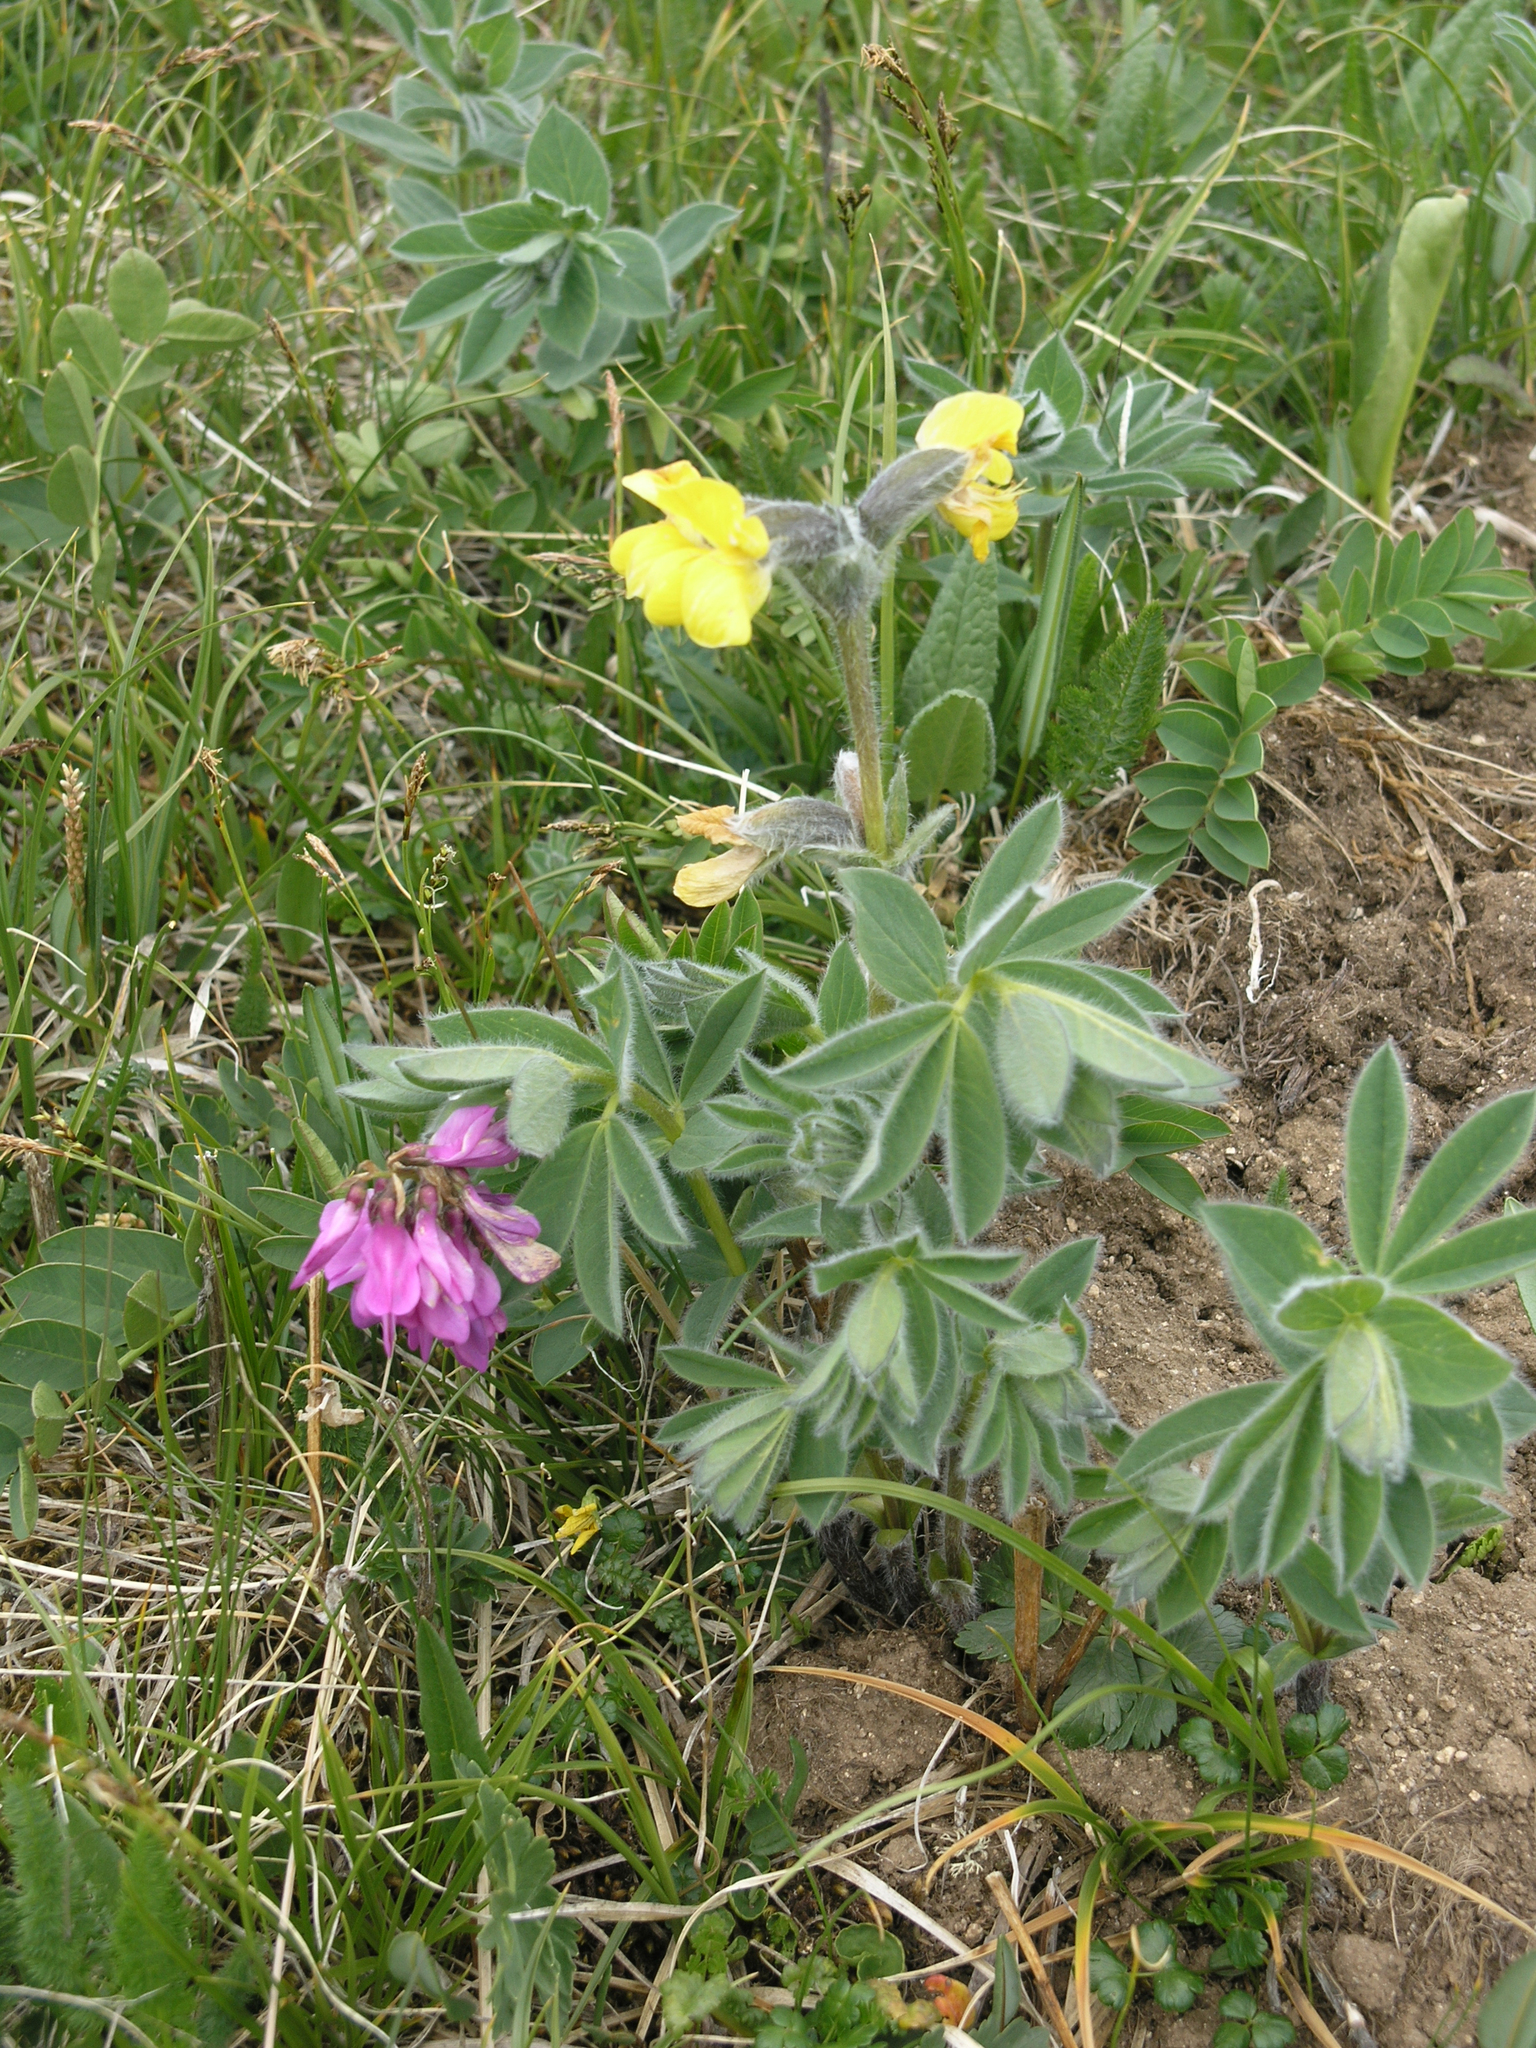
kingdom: Plantae
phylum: Tracheophyta
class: Magnoliopsida
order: Fabales
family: Fabaceae
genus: Thermopsis
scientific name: Thermopsis alpina
